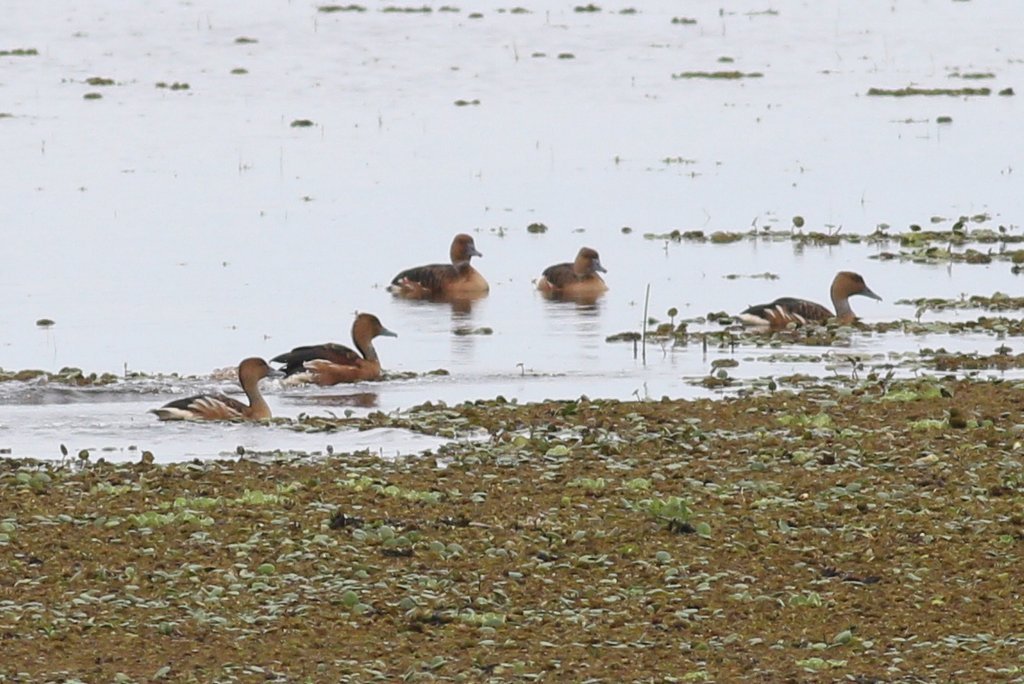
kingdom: Animalia
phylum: Chordata
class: Aves
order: Anseriformes
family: Anatidae
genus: Dendrocygna
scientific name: Dendrocygna bicolor
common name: Fulvous whistling duck
